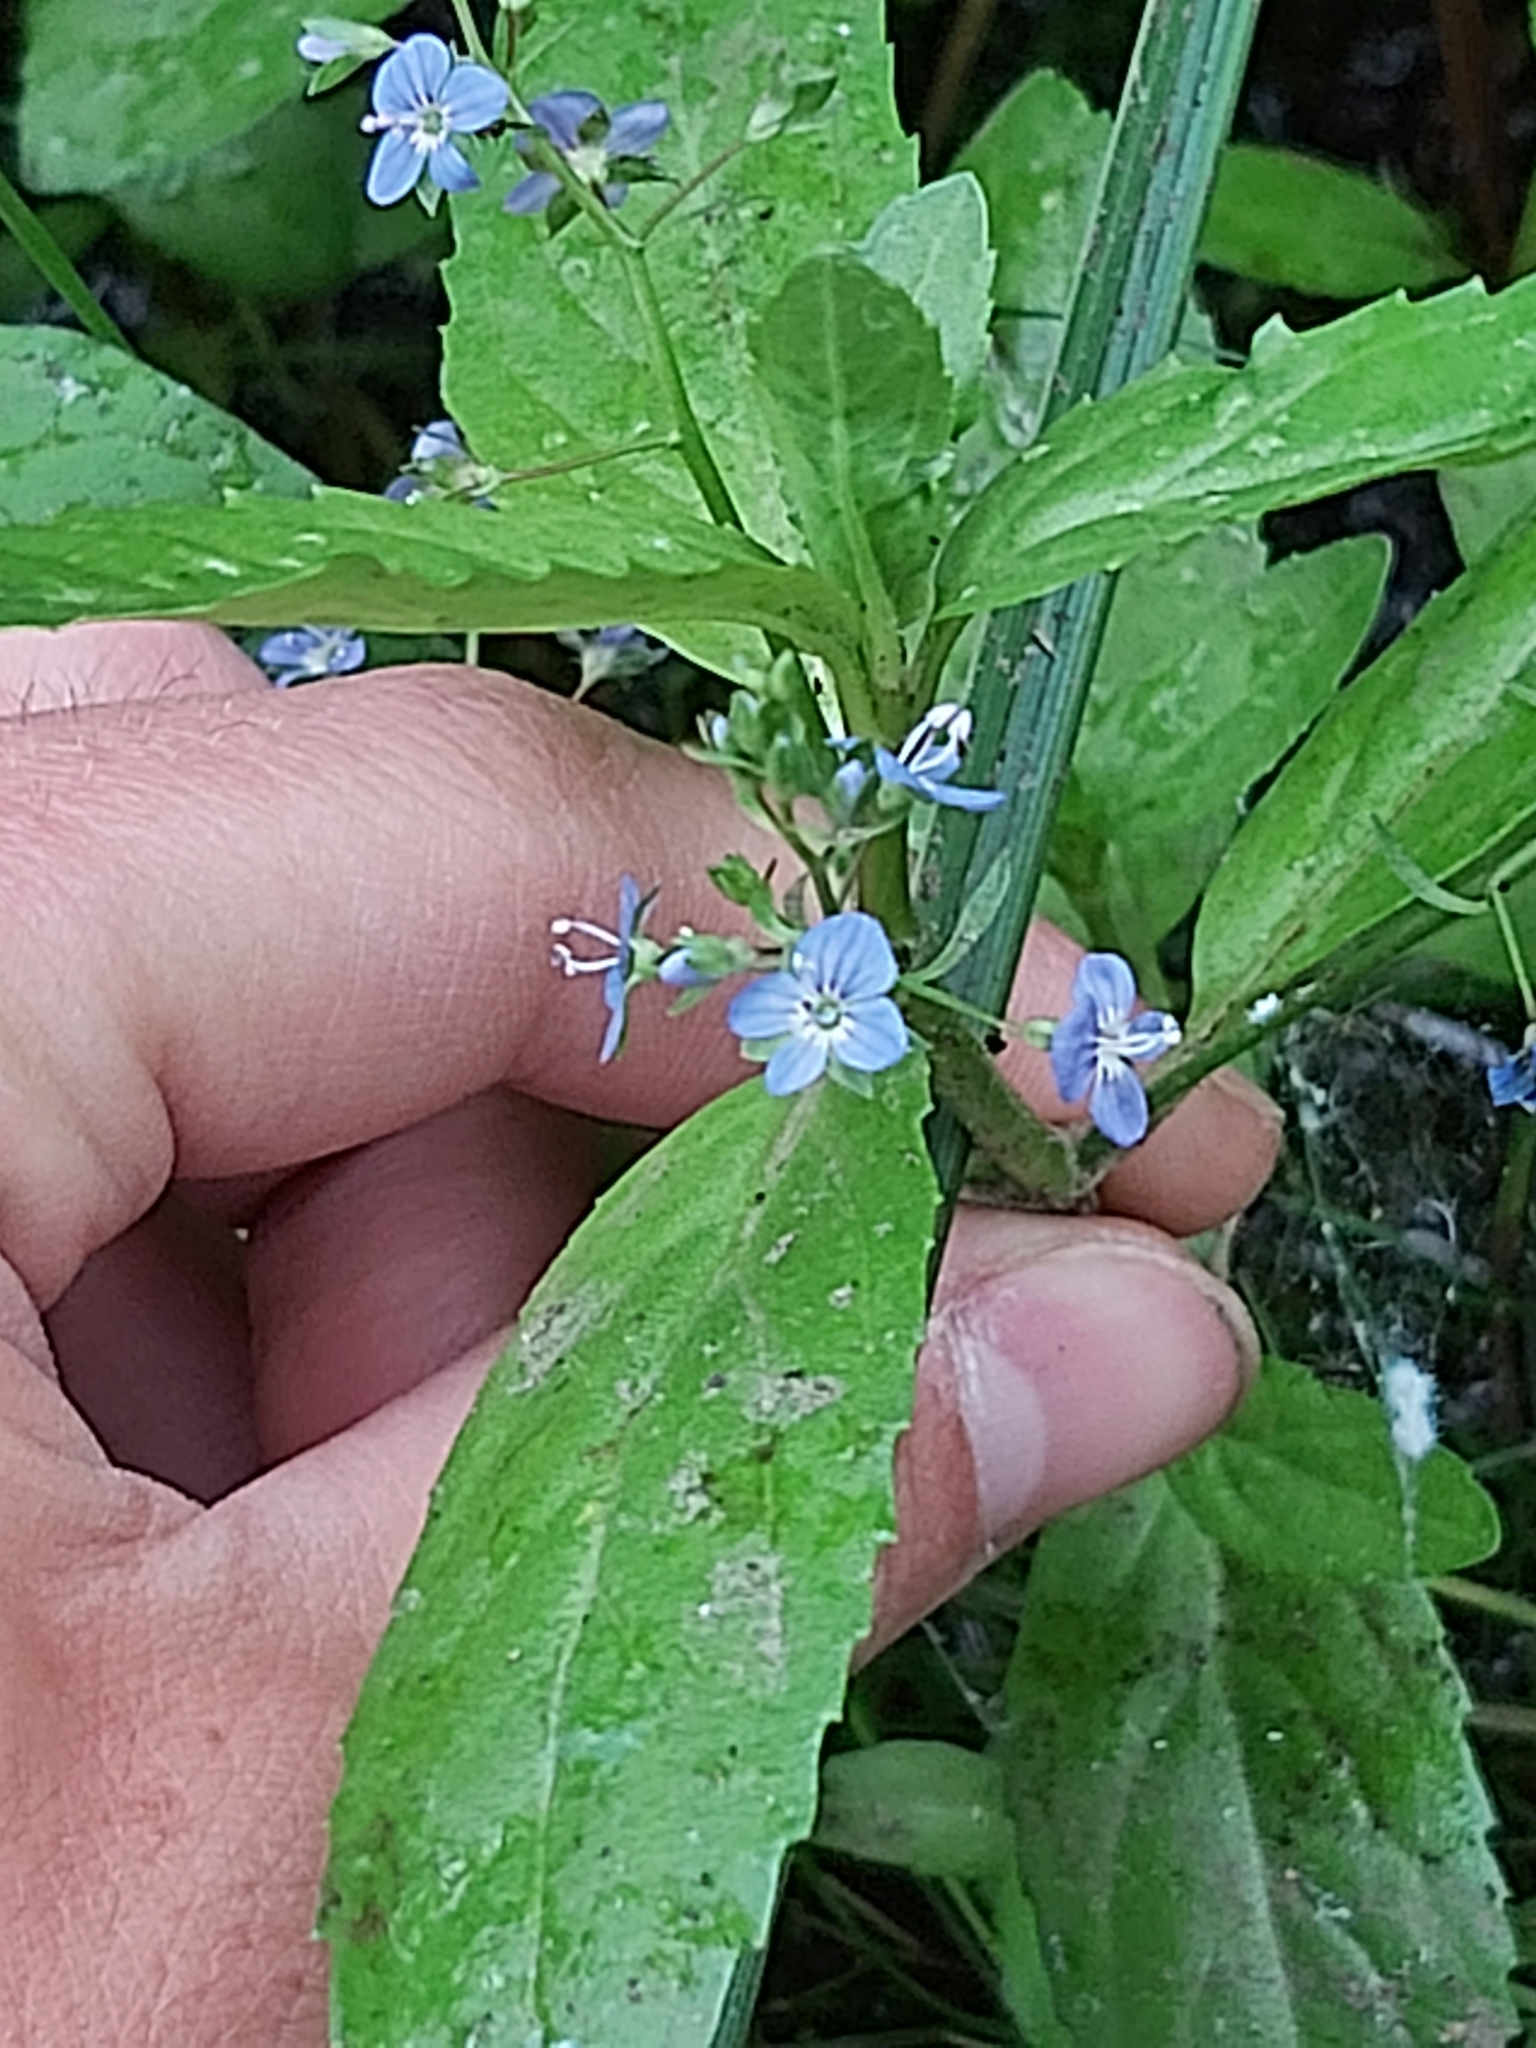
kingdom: Plantae
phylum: Tracheophyta
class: Magnoliopsida
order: Lamiales
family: Plantaginaceae
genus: Veronica
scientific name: Veronica beccabunga
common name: Brooklime
